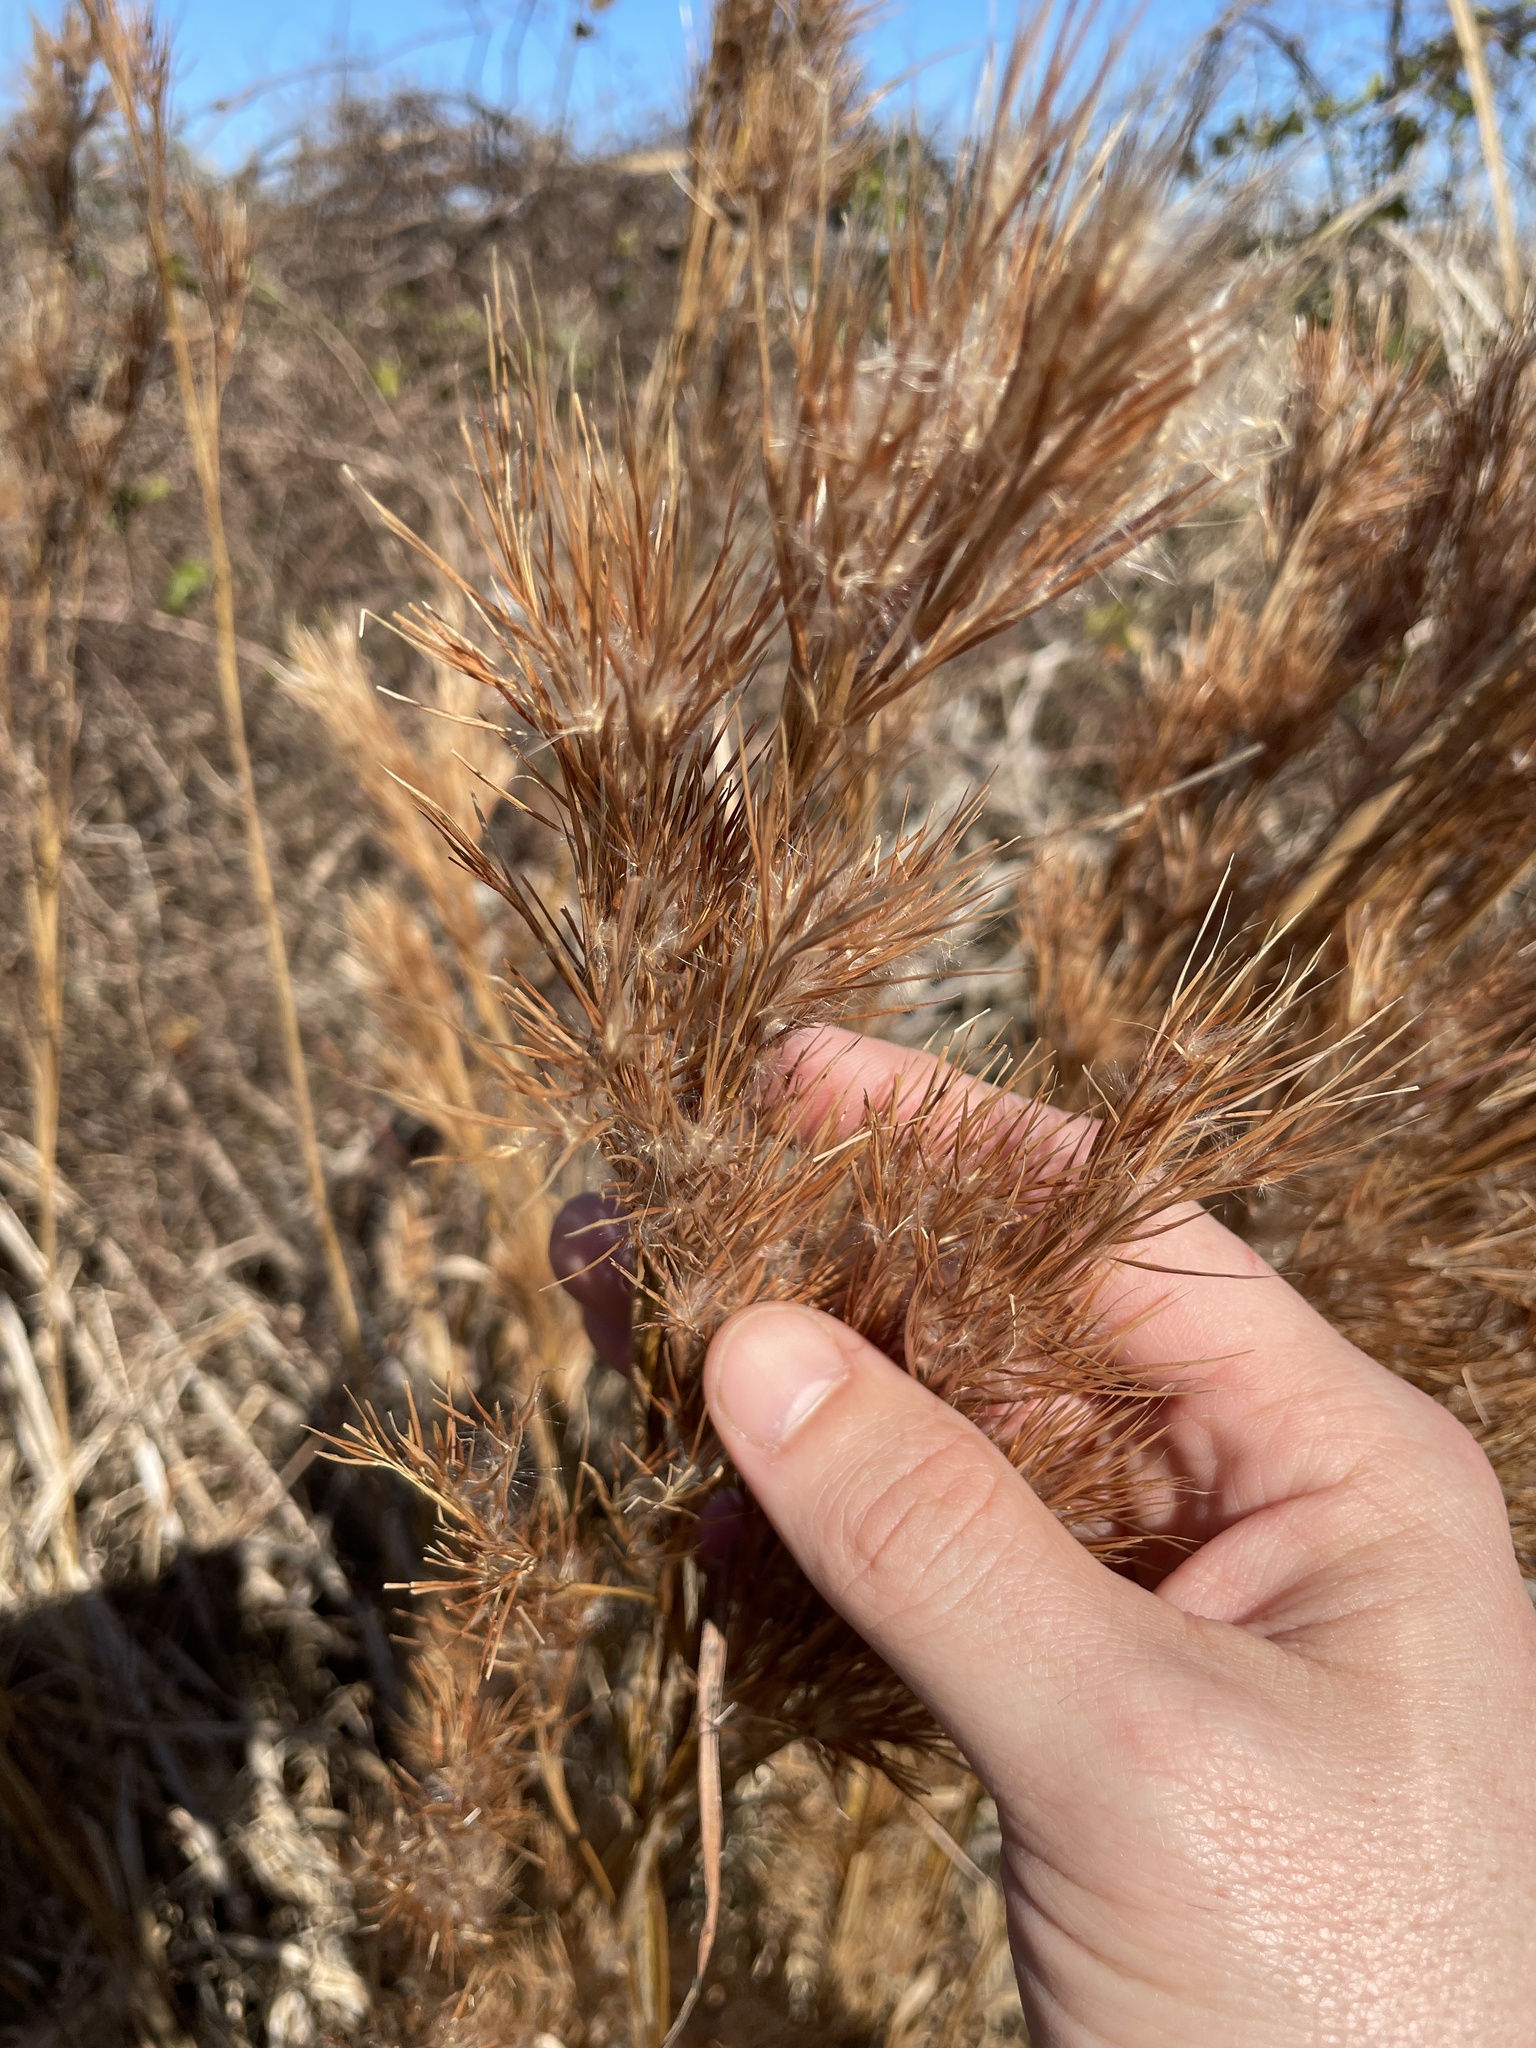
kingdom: Plantae
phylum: Tracheophyta
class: Liliopsida
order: Poales
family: Poaceae
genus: Andropogon
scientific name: Andropogon tenuispatheus
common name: Bushy bluestem
